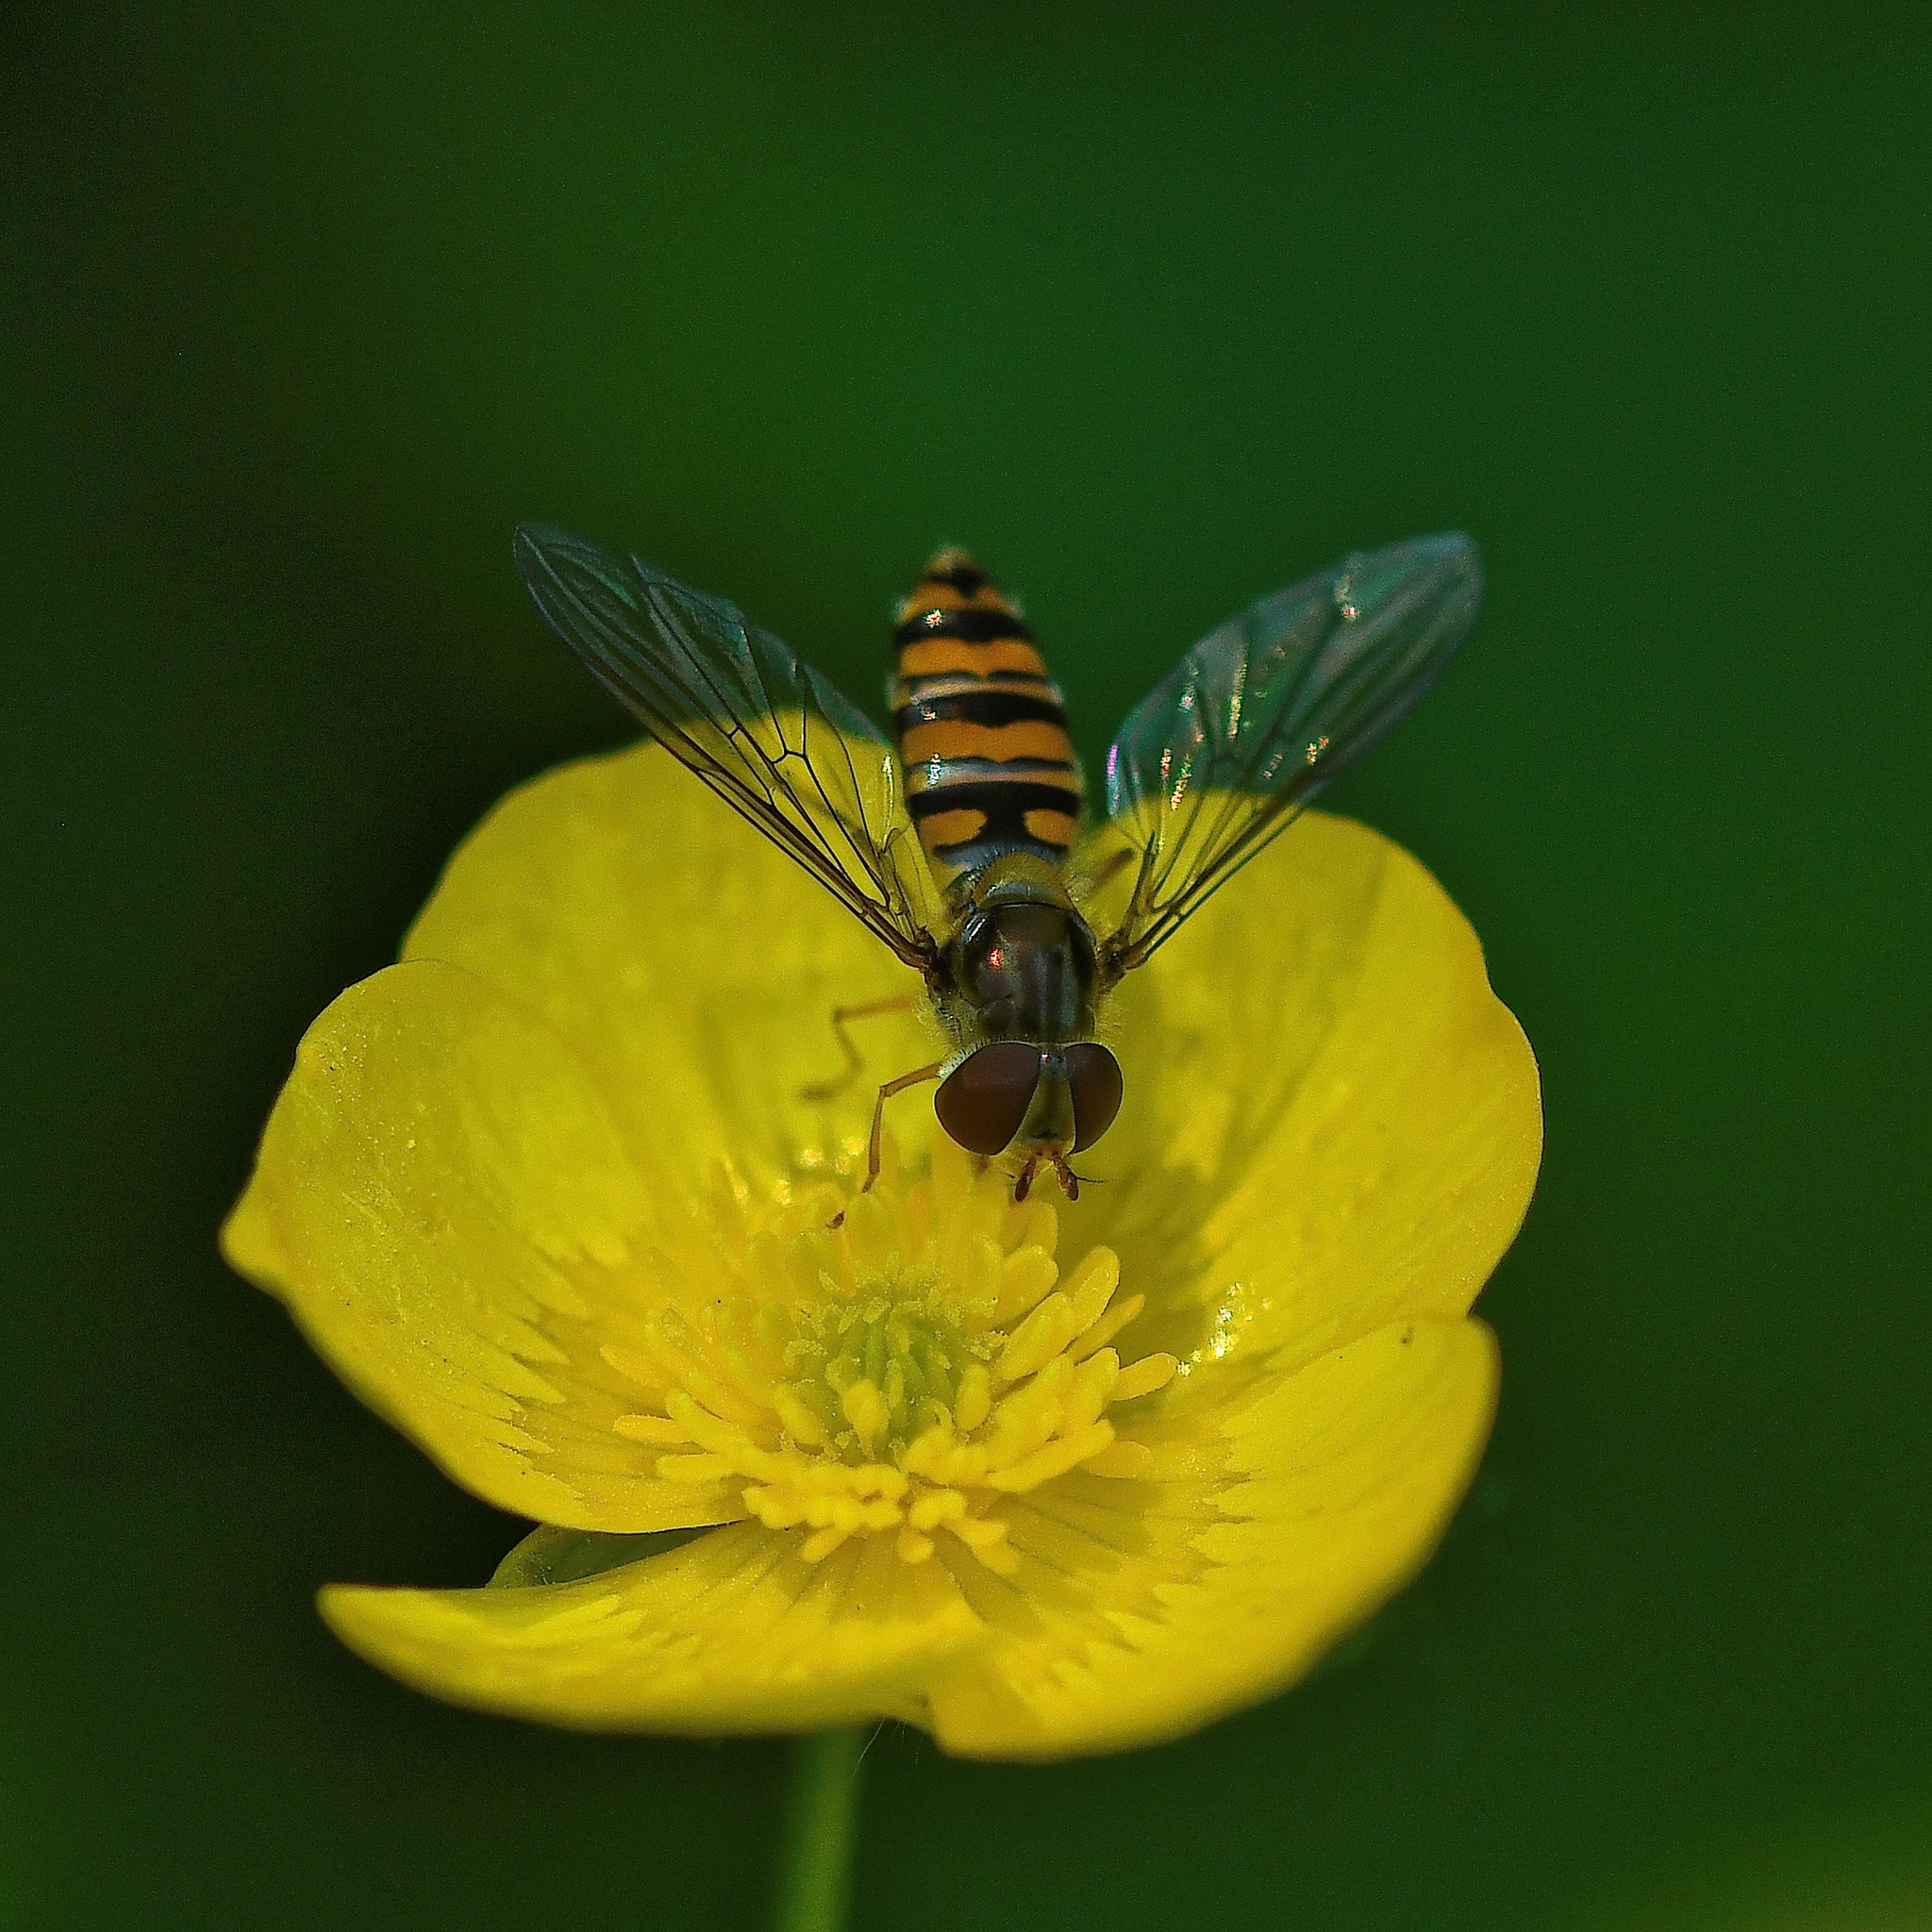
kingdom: Animalia
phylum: Arthropoda
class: Insecta
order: Diptera
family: Syrphidae
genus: Episyrphus
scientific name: Episyrphus balteatus
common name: Marmalade hoverfly
